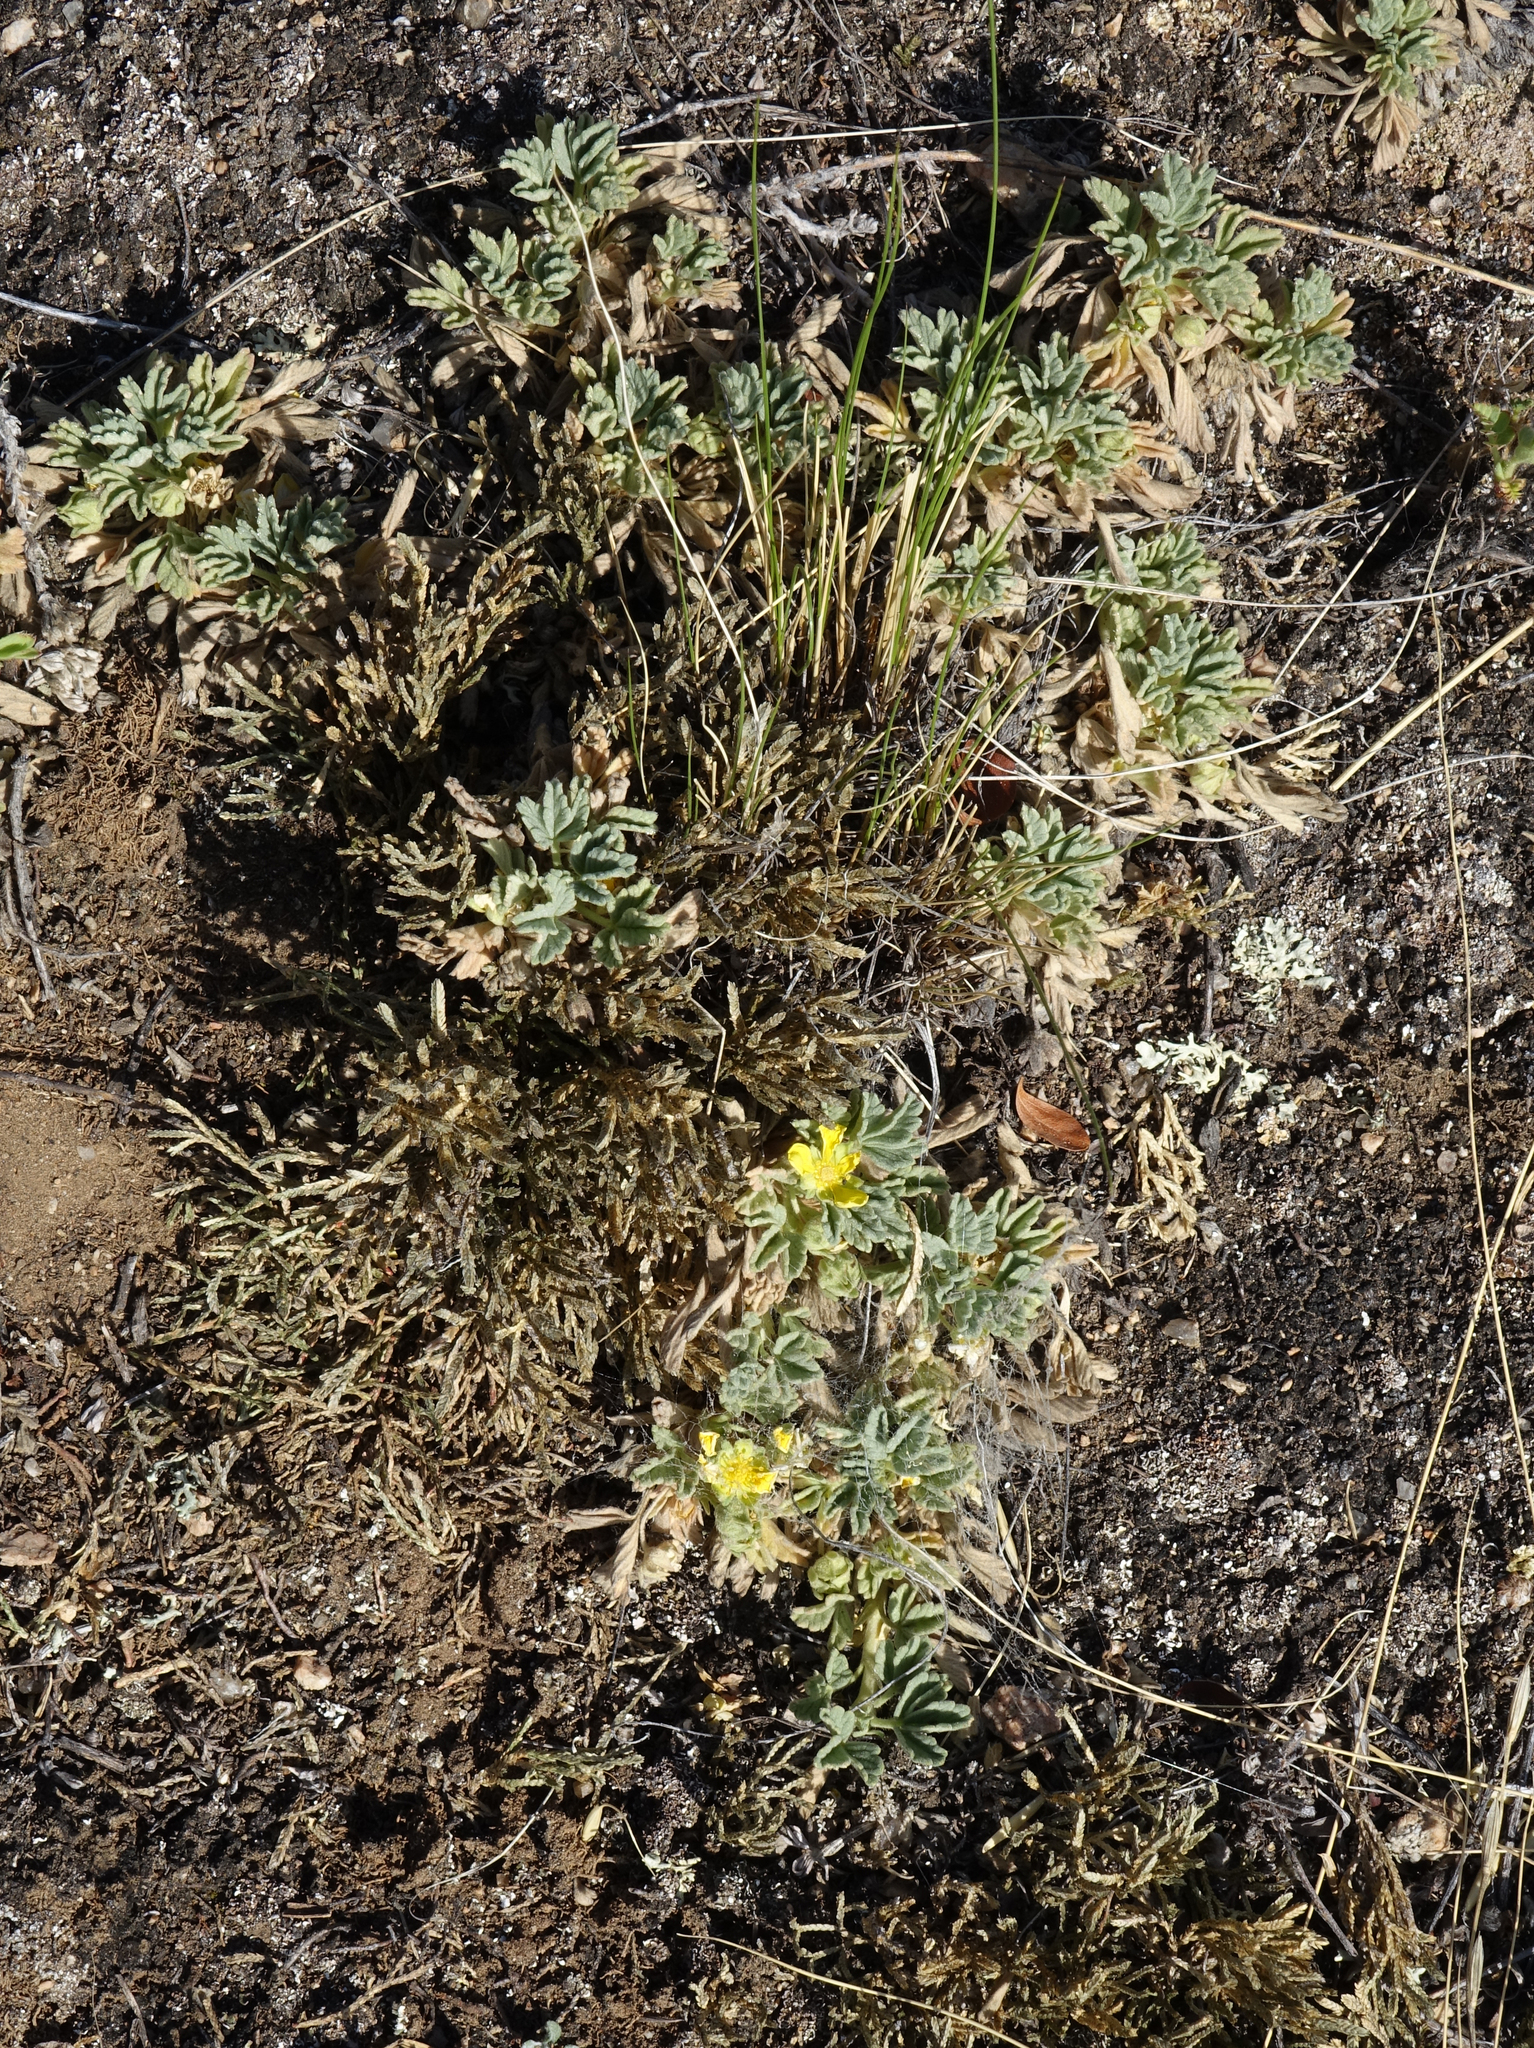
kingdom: Plantae
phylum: Tracheophyta
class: Magnoliopsida
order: Rosales
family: Rosaceae
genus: Potentilla
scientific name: Potentilla acaulis
